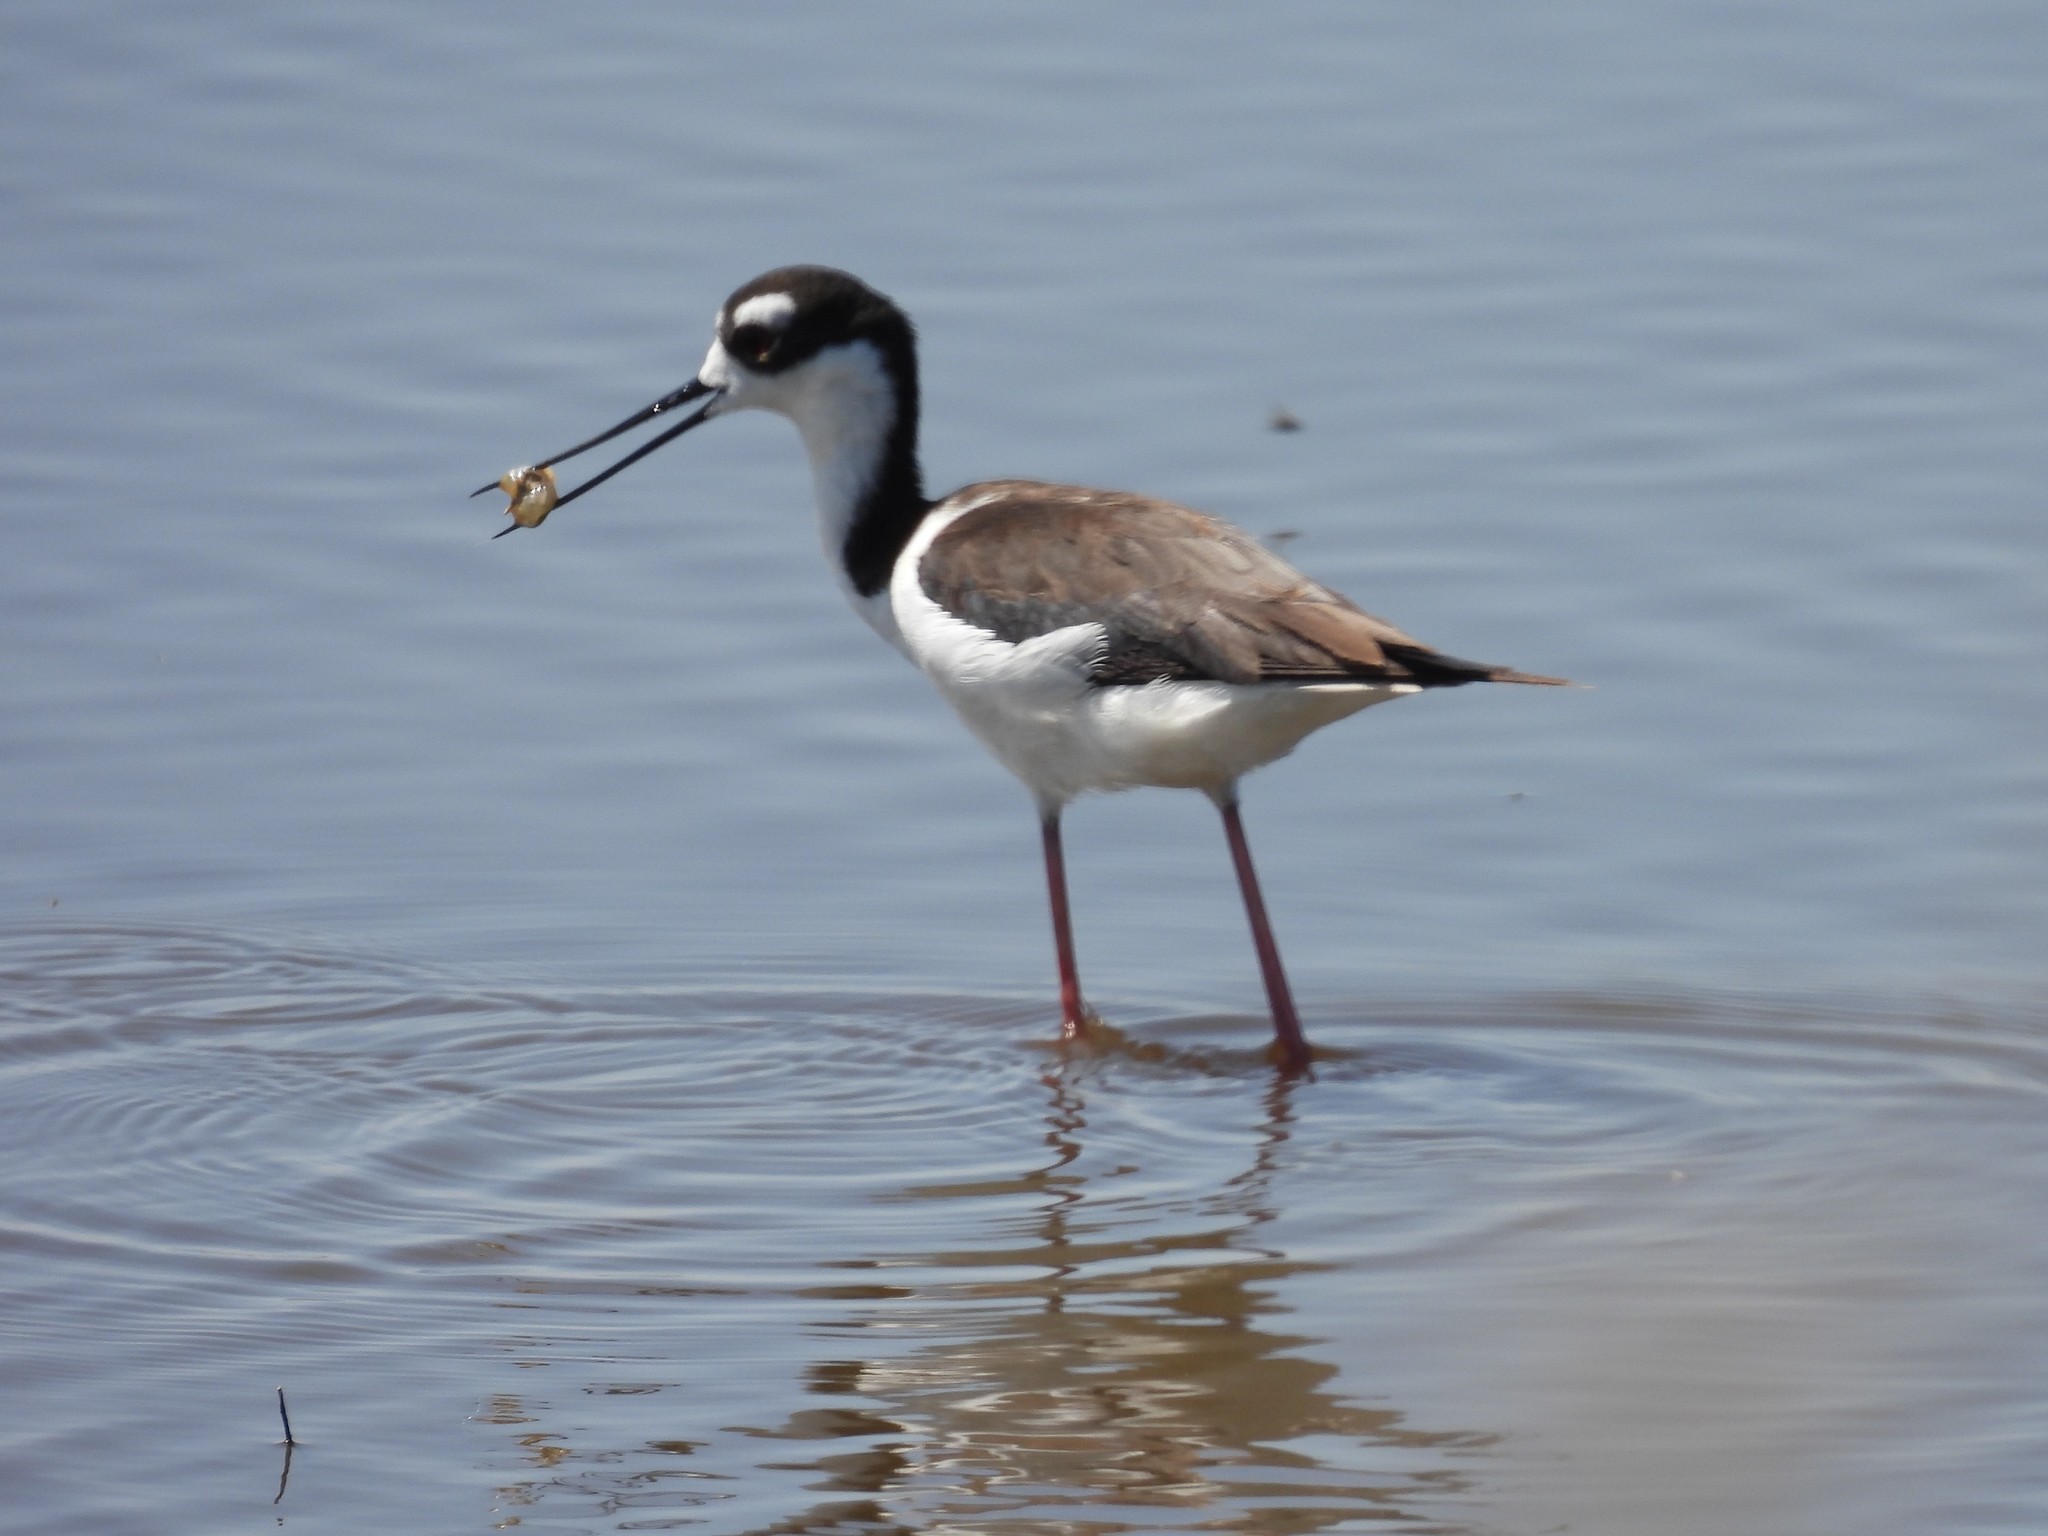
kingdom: Animalia
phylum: Chordata
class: Aves
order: Charadriiformes
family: Recurvirostridae
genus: Himantopus
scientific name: Himantopus mexicanus
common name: Black-necked stilt
